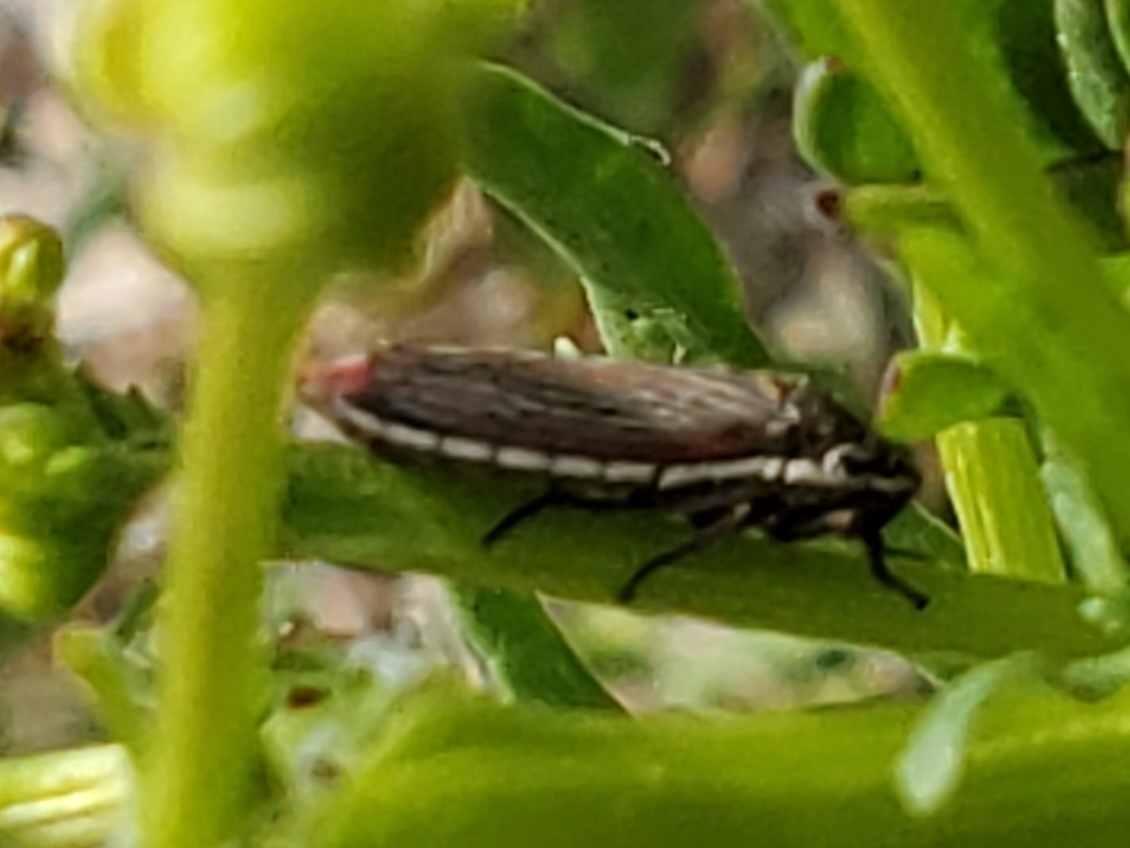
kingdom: Animalia
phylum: Arthropoda
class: Insecta
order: Hemiptera
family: Cicadellidae
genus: Cuerna
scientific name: Cuerna costalis
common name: Lateral-lined sharpshooter
